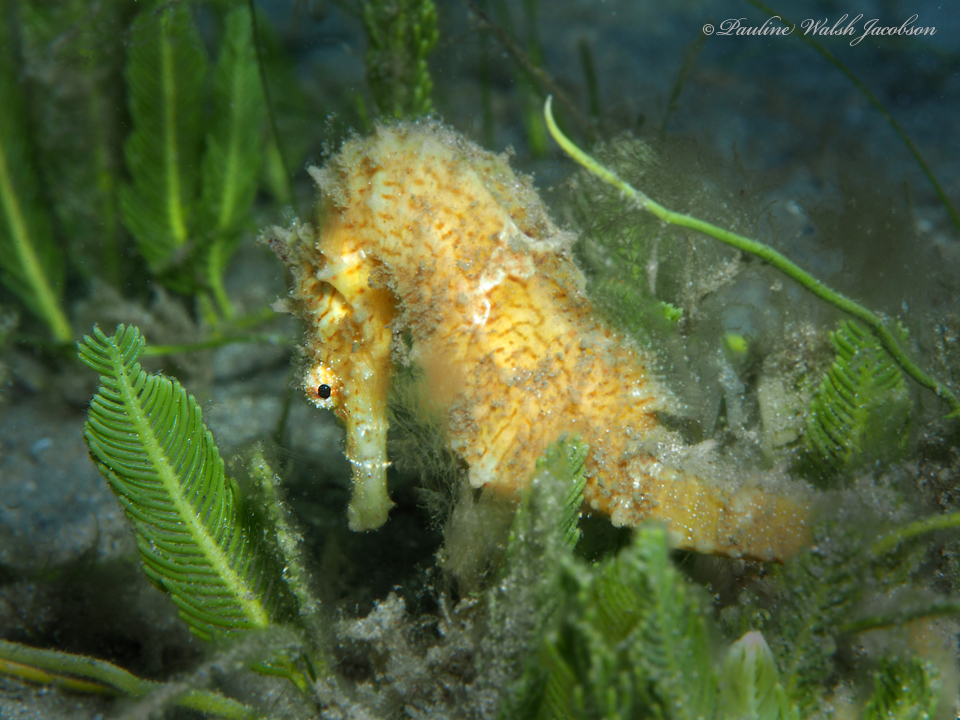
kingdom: Animalia
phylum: Chordata
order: Syngnathiformes
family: Syngnathidae
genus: Hippocampus
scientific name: Hippocampus erectus
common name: Lined seahorse
